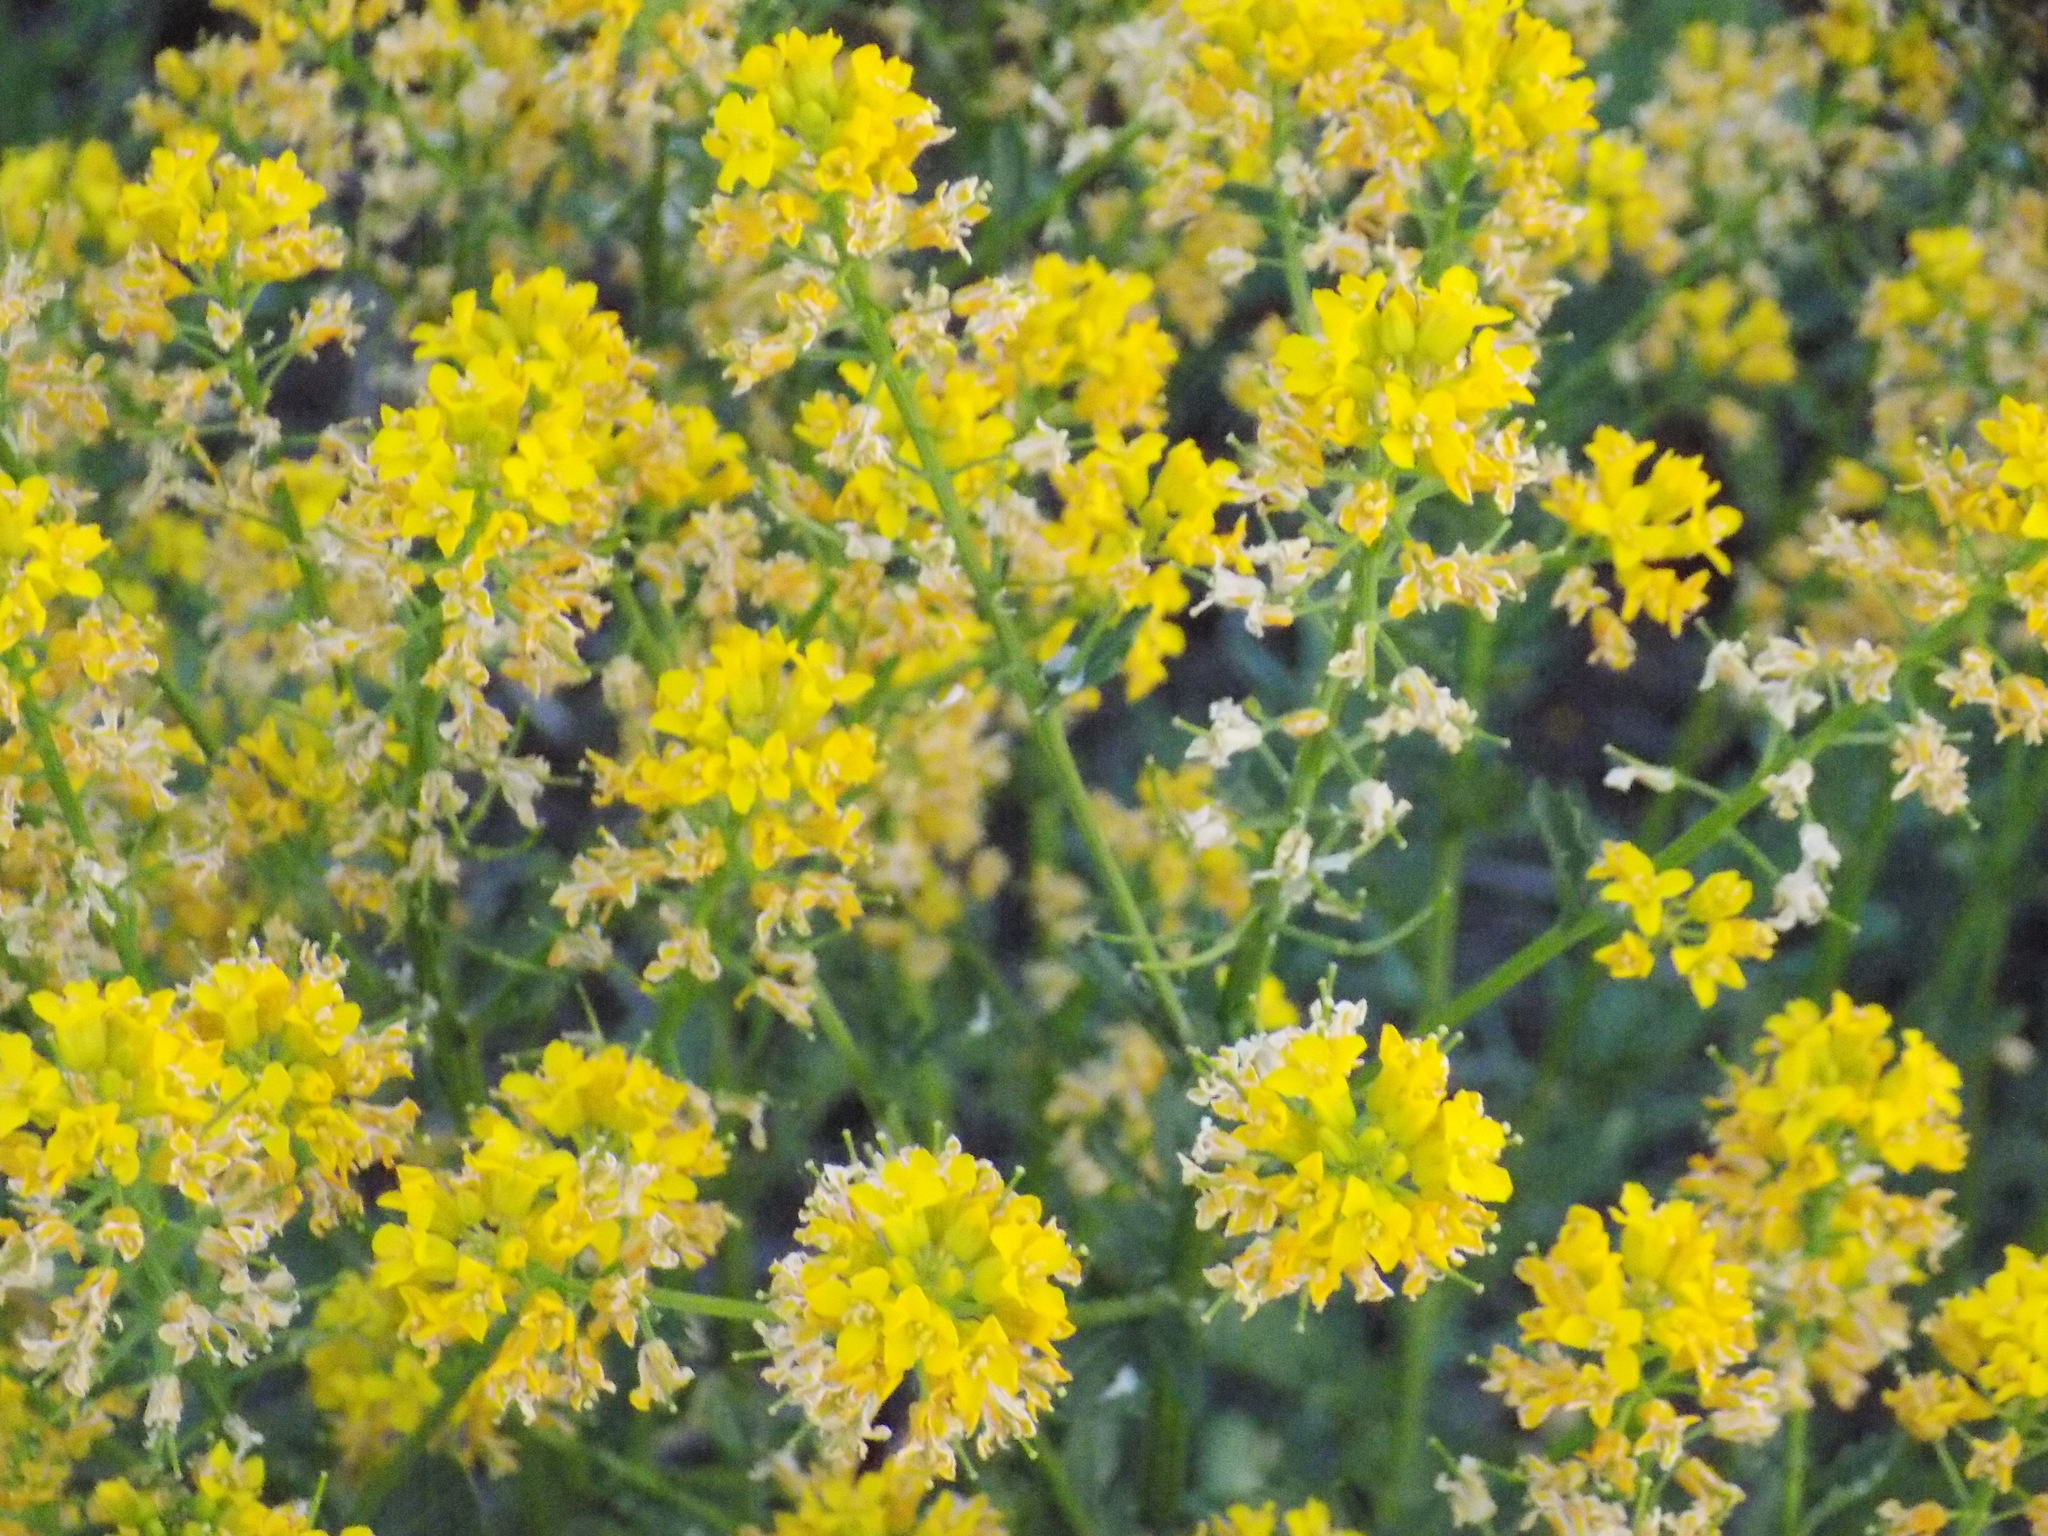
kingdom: Plantae
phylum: Tracheophyta
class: Magnoliopsida
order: Brassicales
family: Brassicaceae
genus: Barbarea
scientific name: Barbarea vulgaris
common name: Cressy-greens
